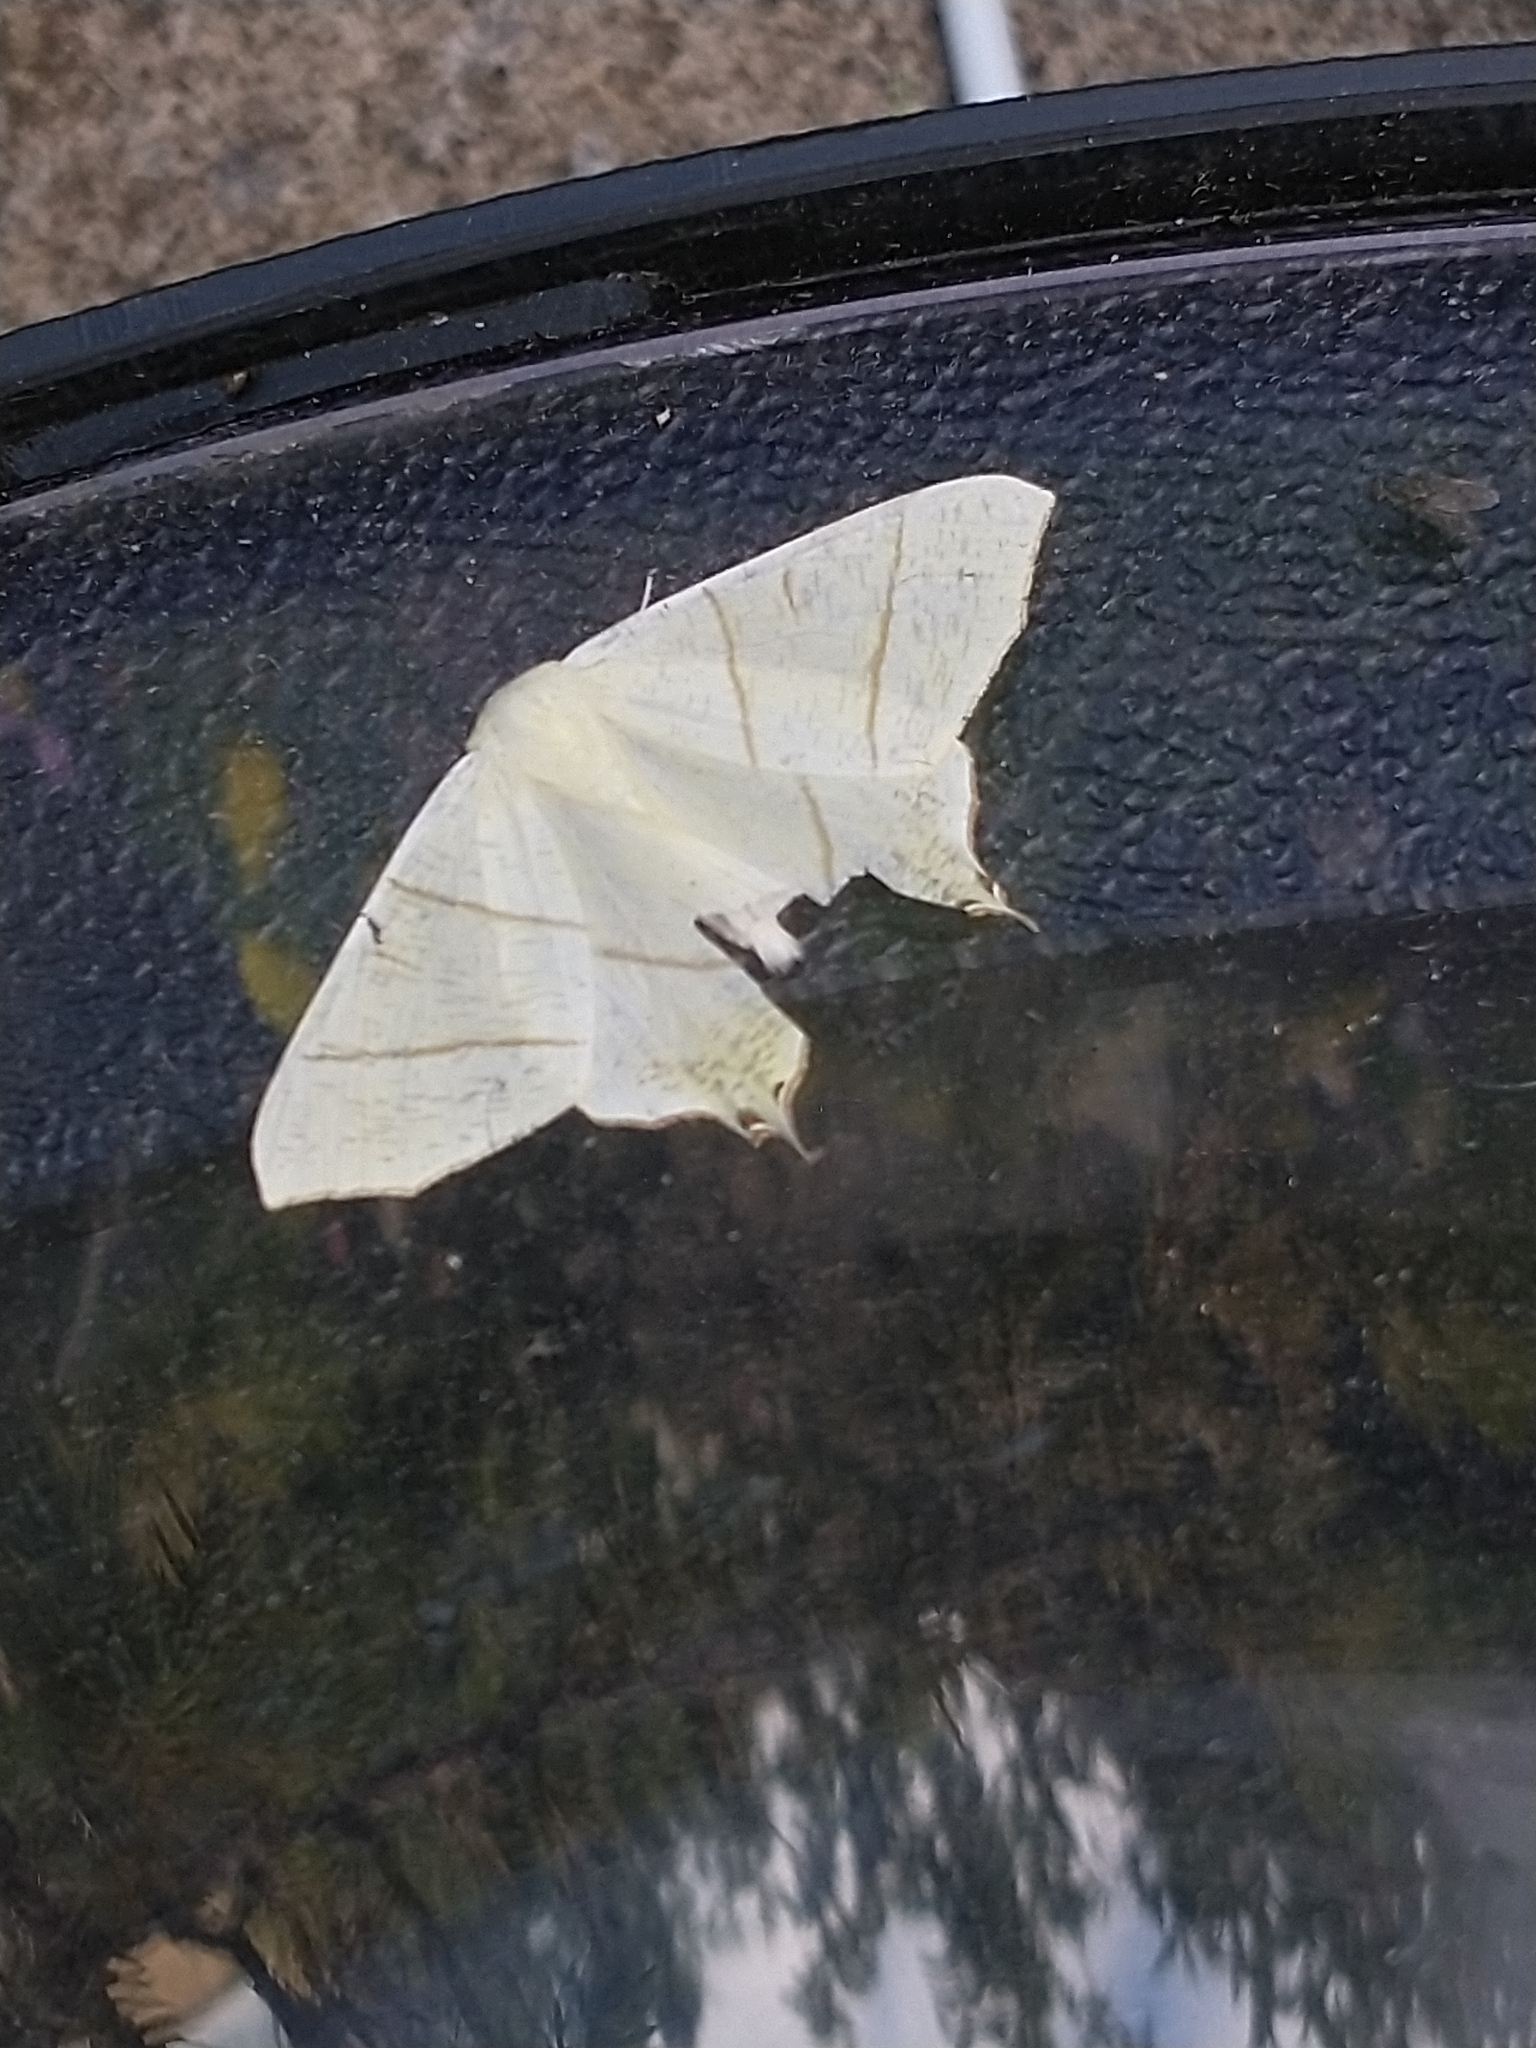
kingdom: Animalia
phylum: Arthropoda
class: Insecta
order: Lepidoptera
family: Geometridae
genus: Ourapteryx
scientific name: Ourapteryx sambucaria
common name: Swallow-tailed moth
